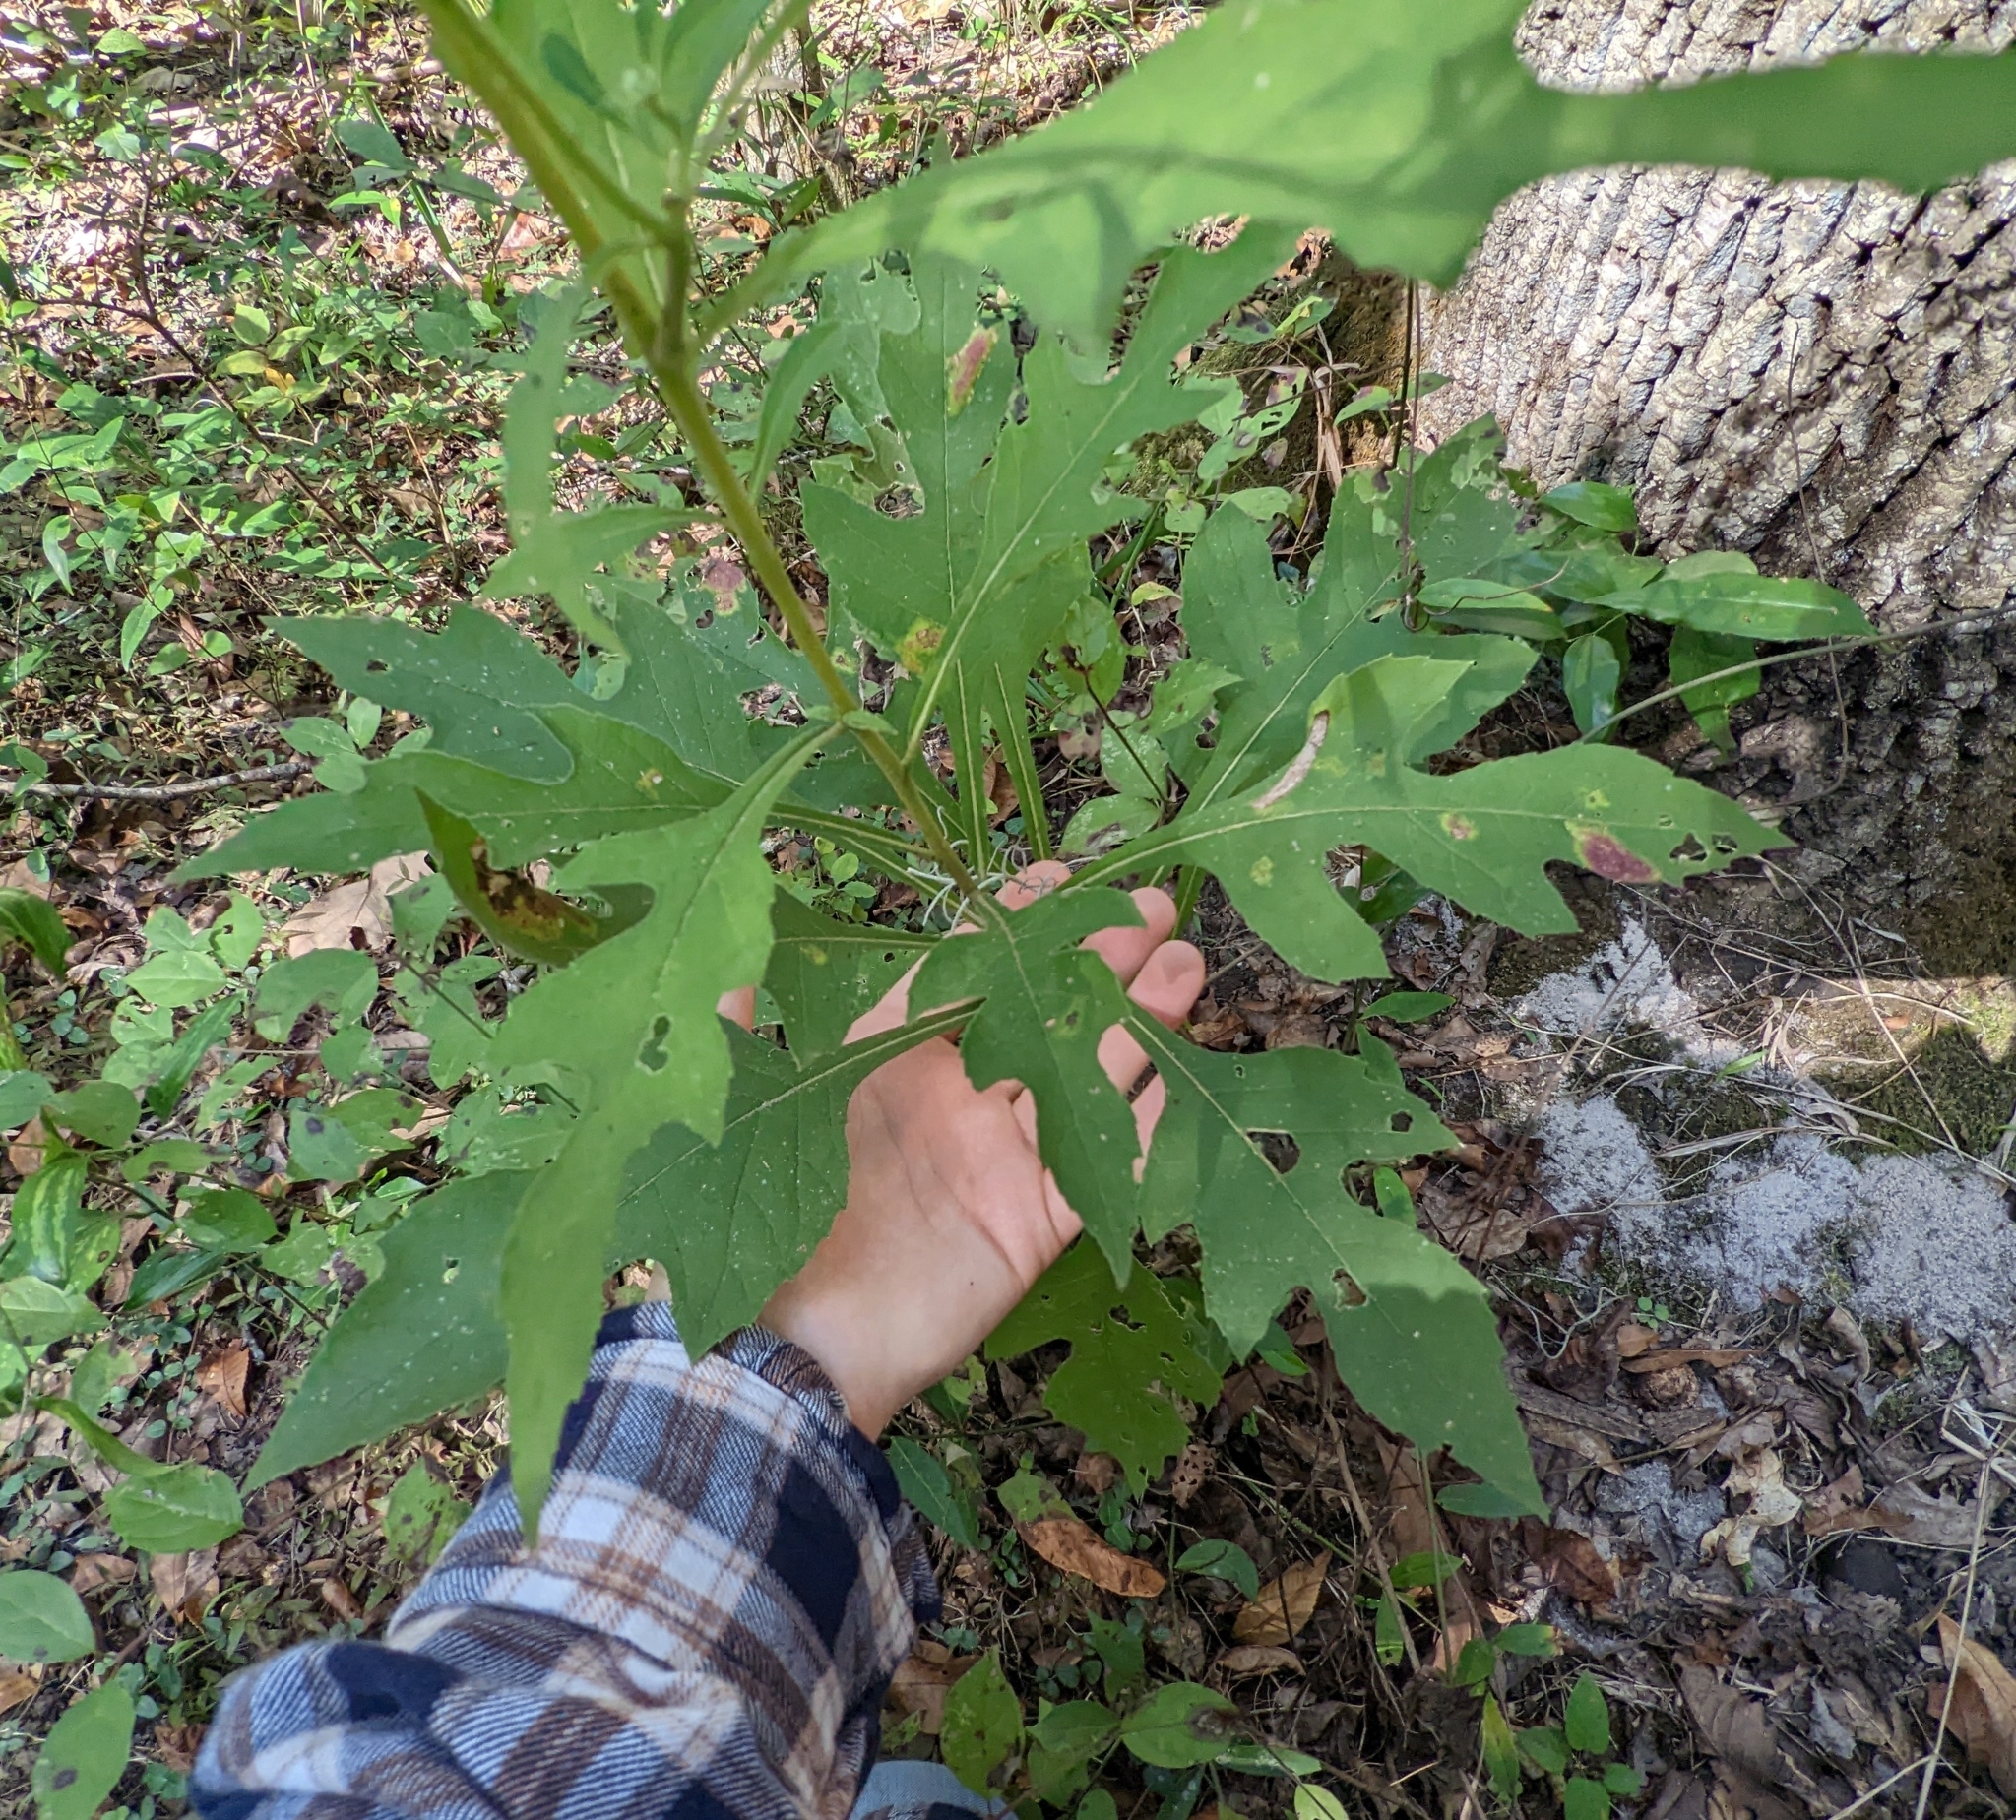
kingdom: Plantae
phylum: Tracheophyta
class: Magnoliopsida
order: Asterales
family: Asteraceae
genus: Verbesina
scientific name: Verbesina virginica
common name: Frostweed
